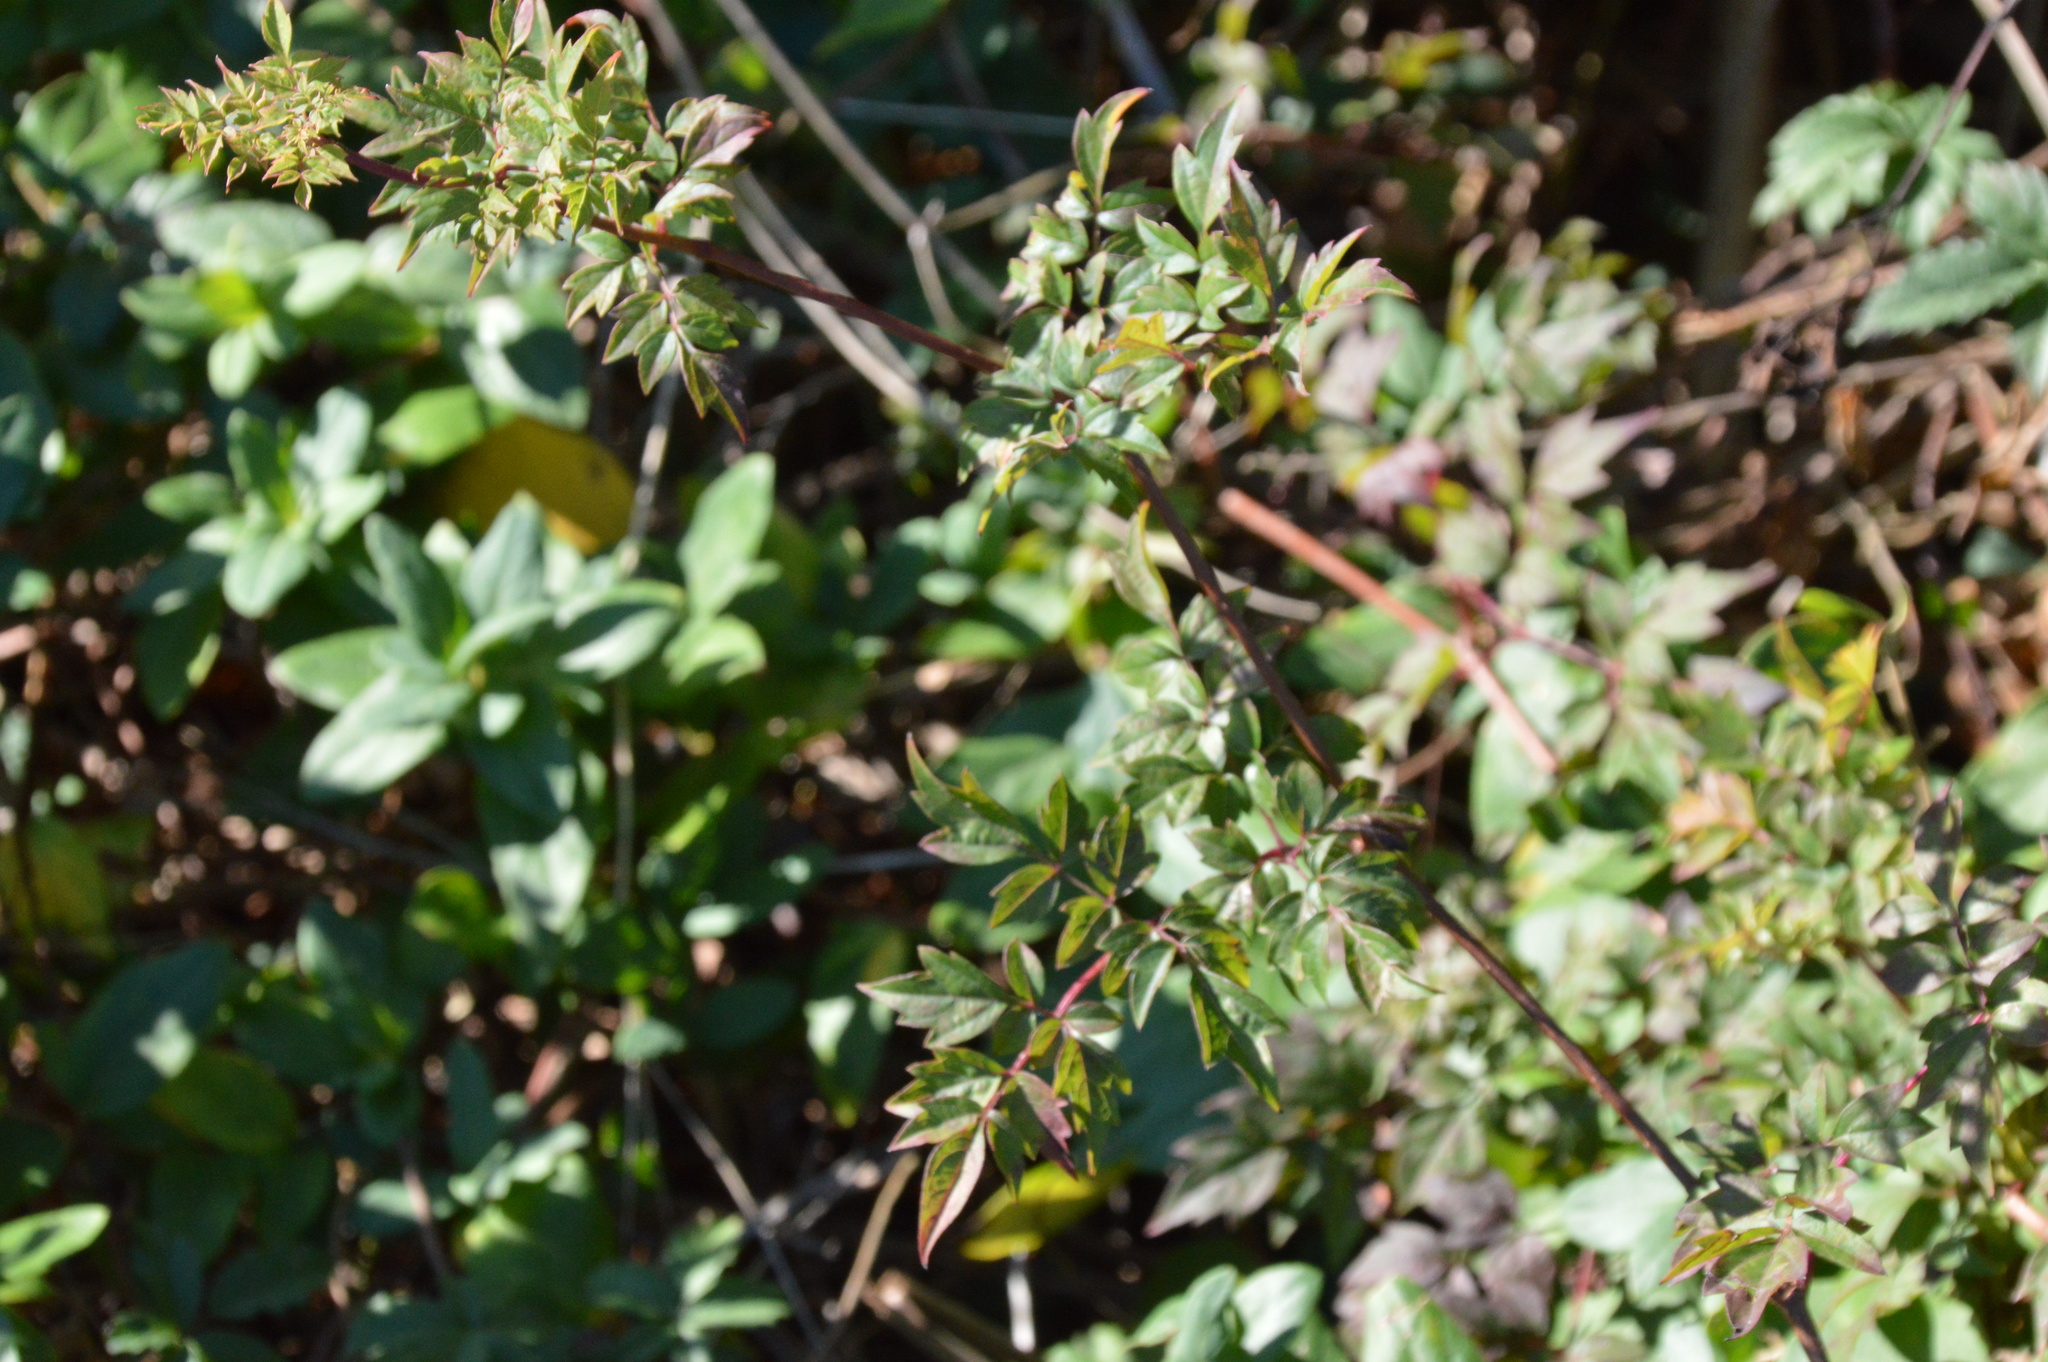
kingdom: Plantae
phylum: Tracheophyta
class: Magnoliopsida
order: Vitales
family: Vitaceae
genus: Nekemias
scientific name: Nekemias arborea
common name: Peppervine
